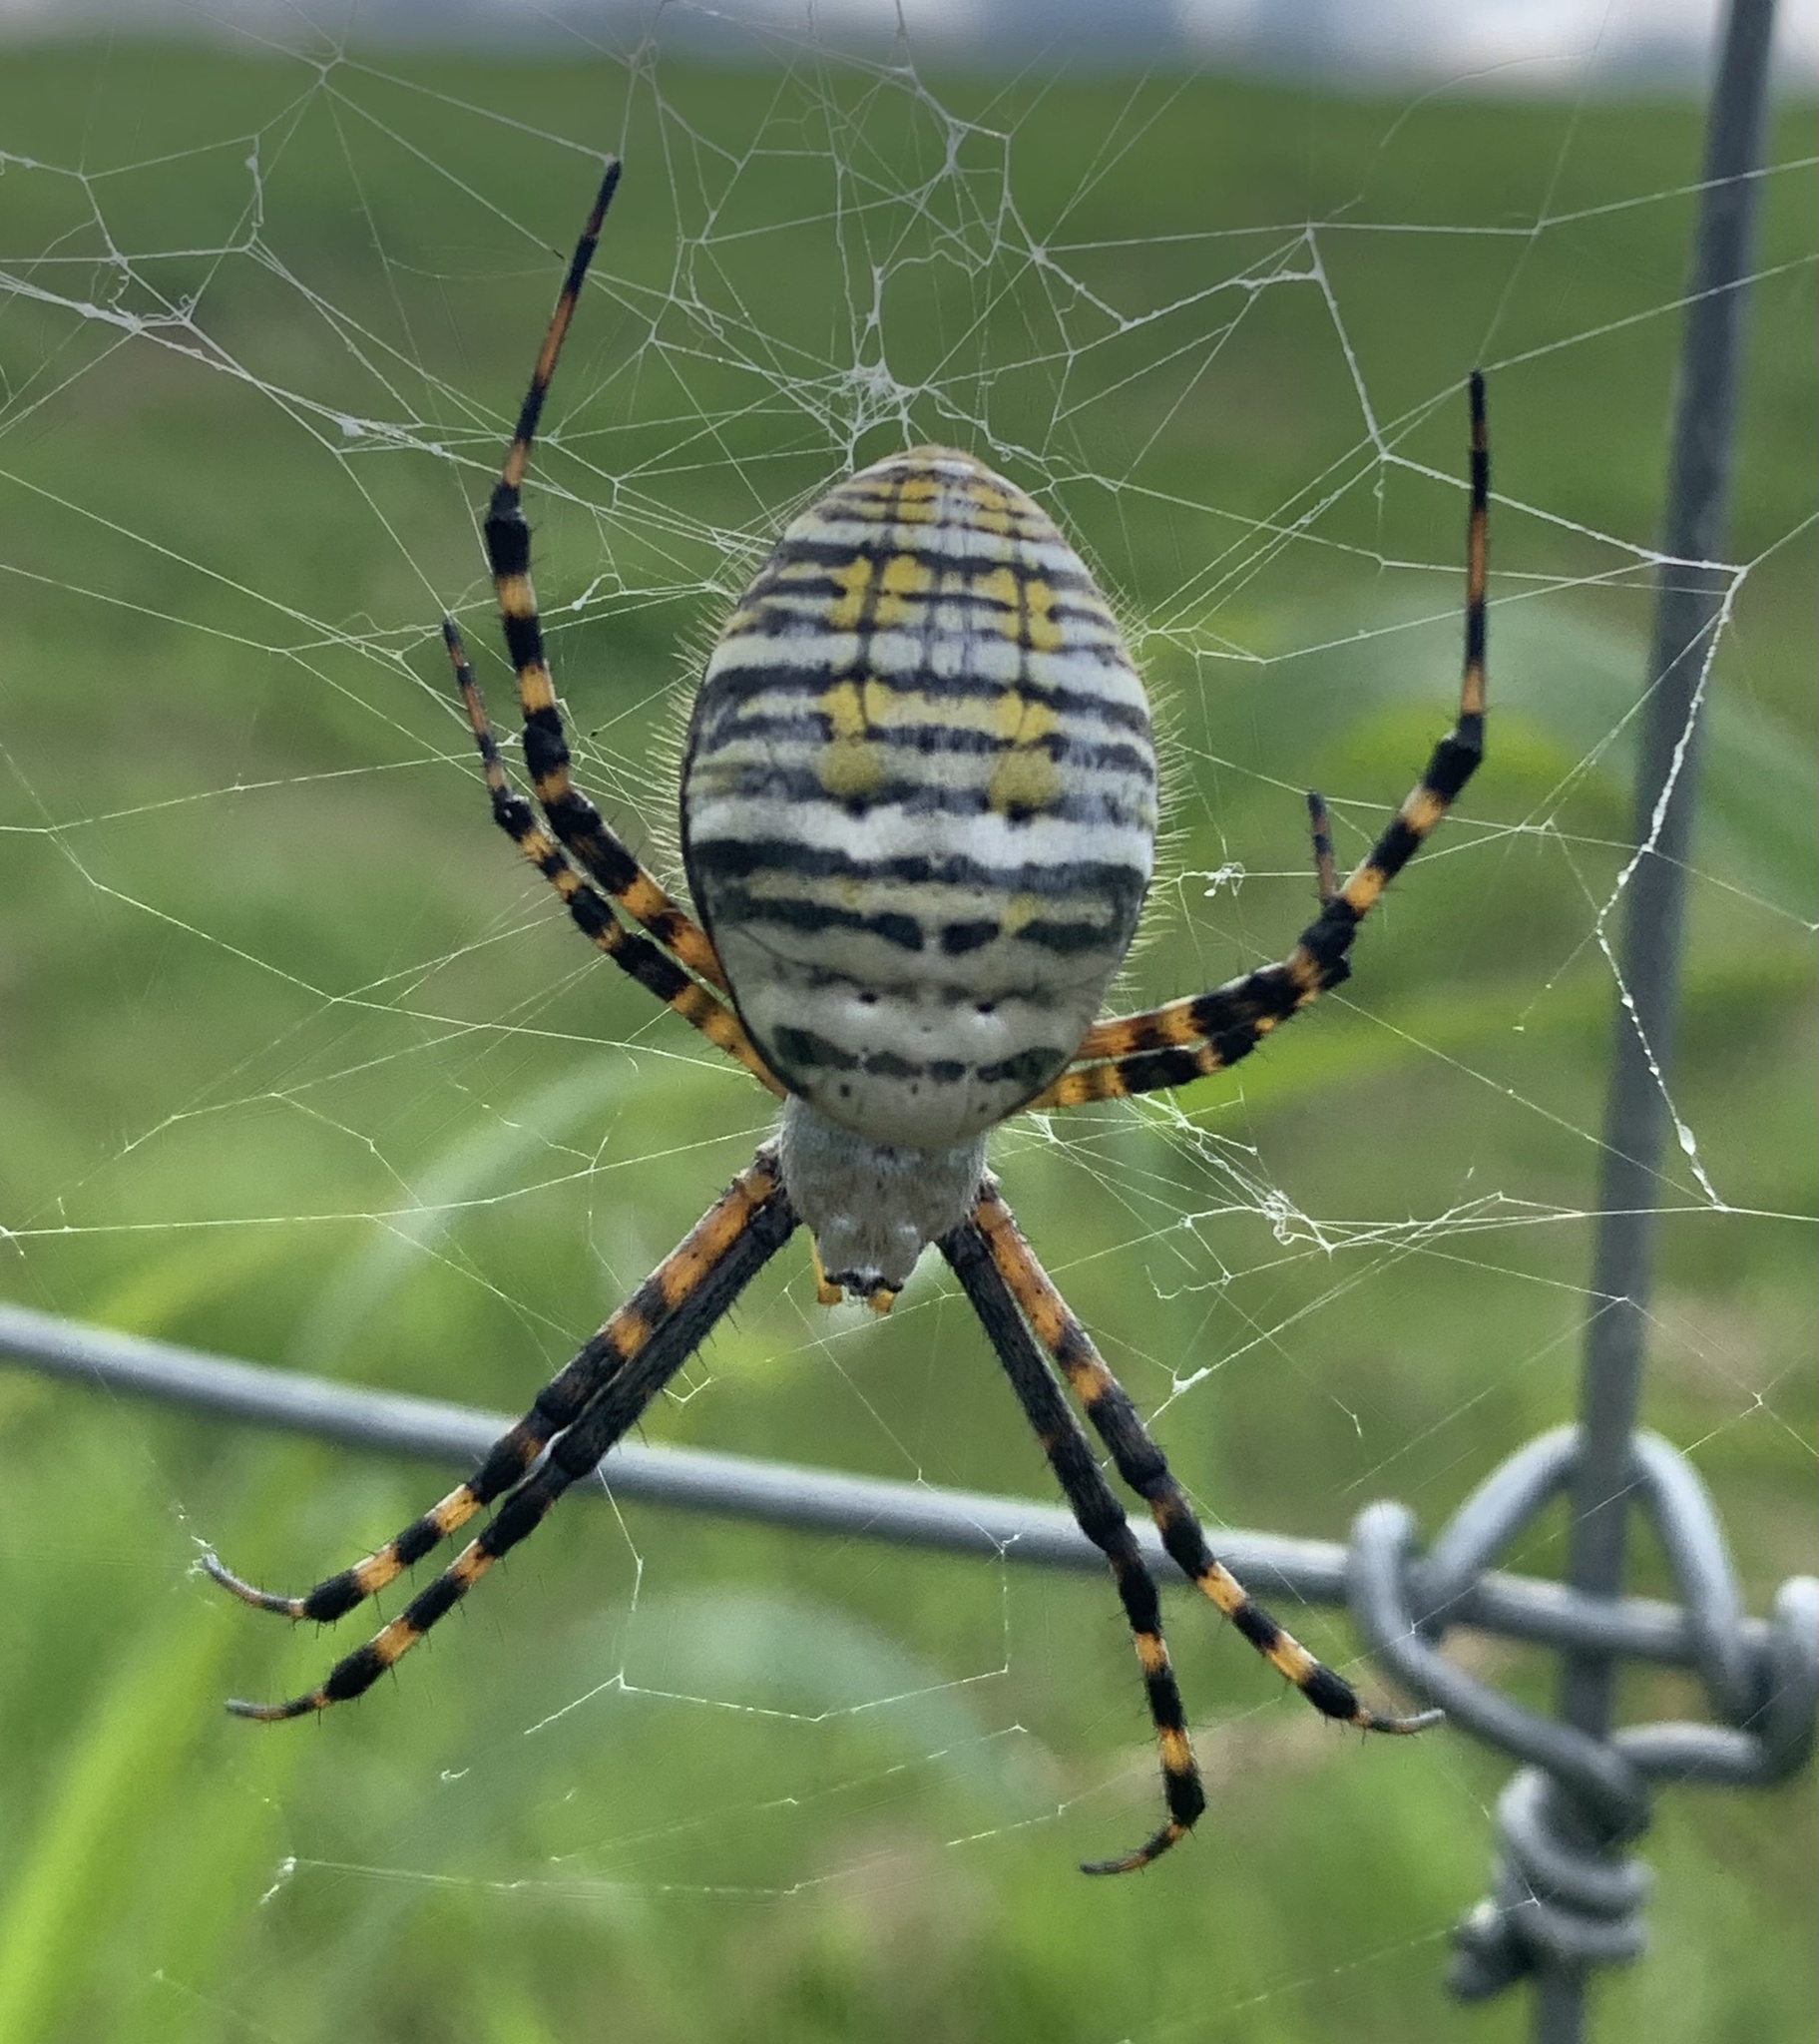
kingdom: Animalia
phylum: Arthropoda
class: Arachnida
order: Araneae
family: Araneidae
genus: Argiope
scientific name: Argiope trifasciata
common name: Banded garden spider
